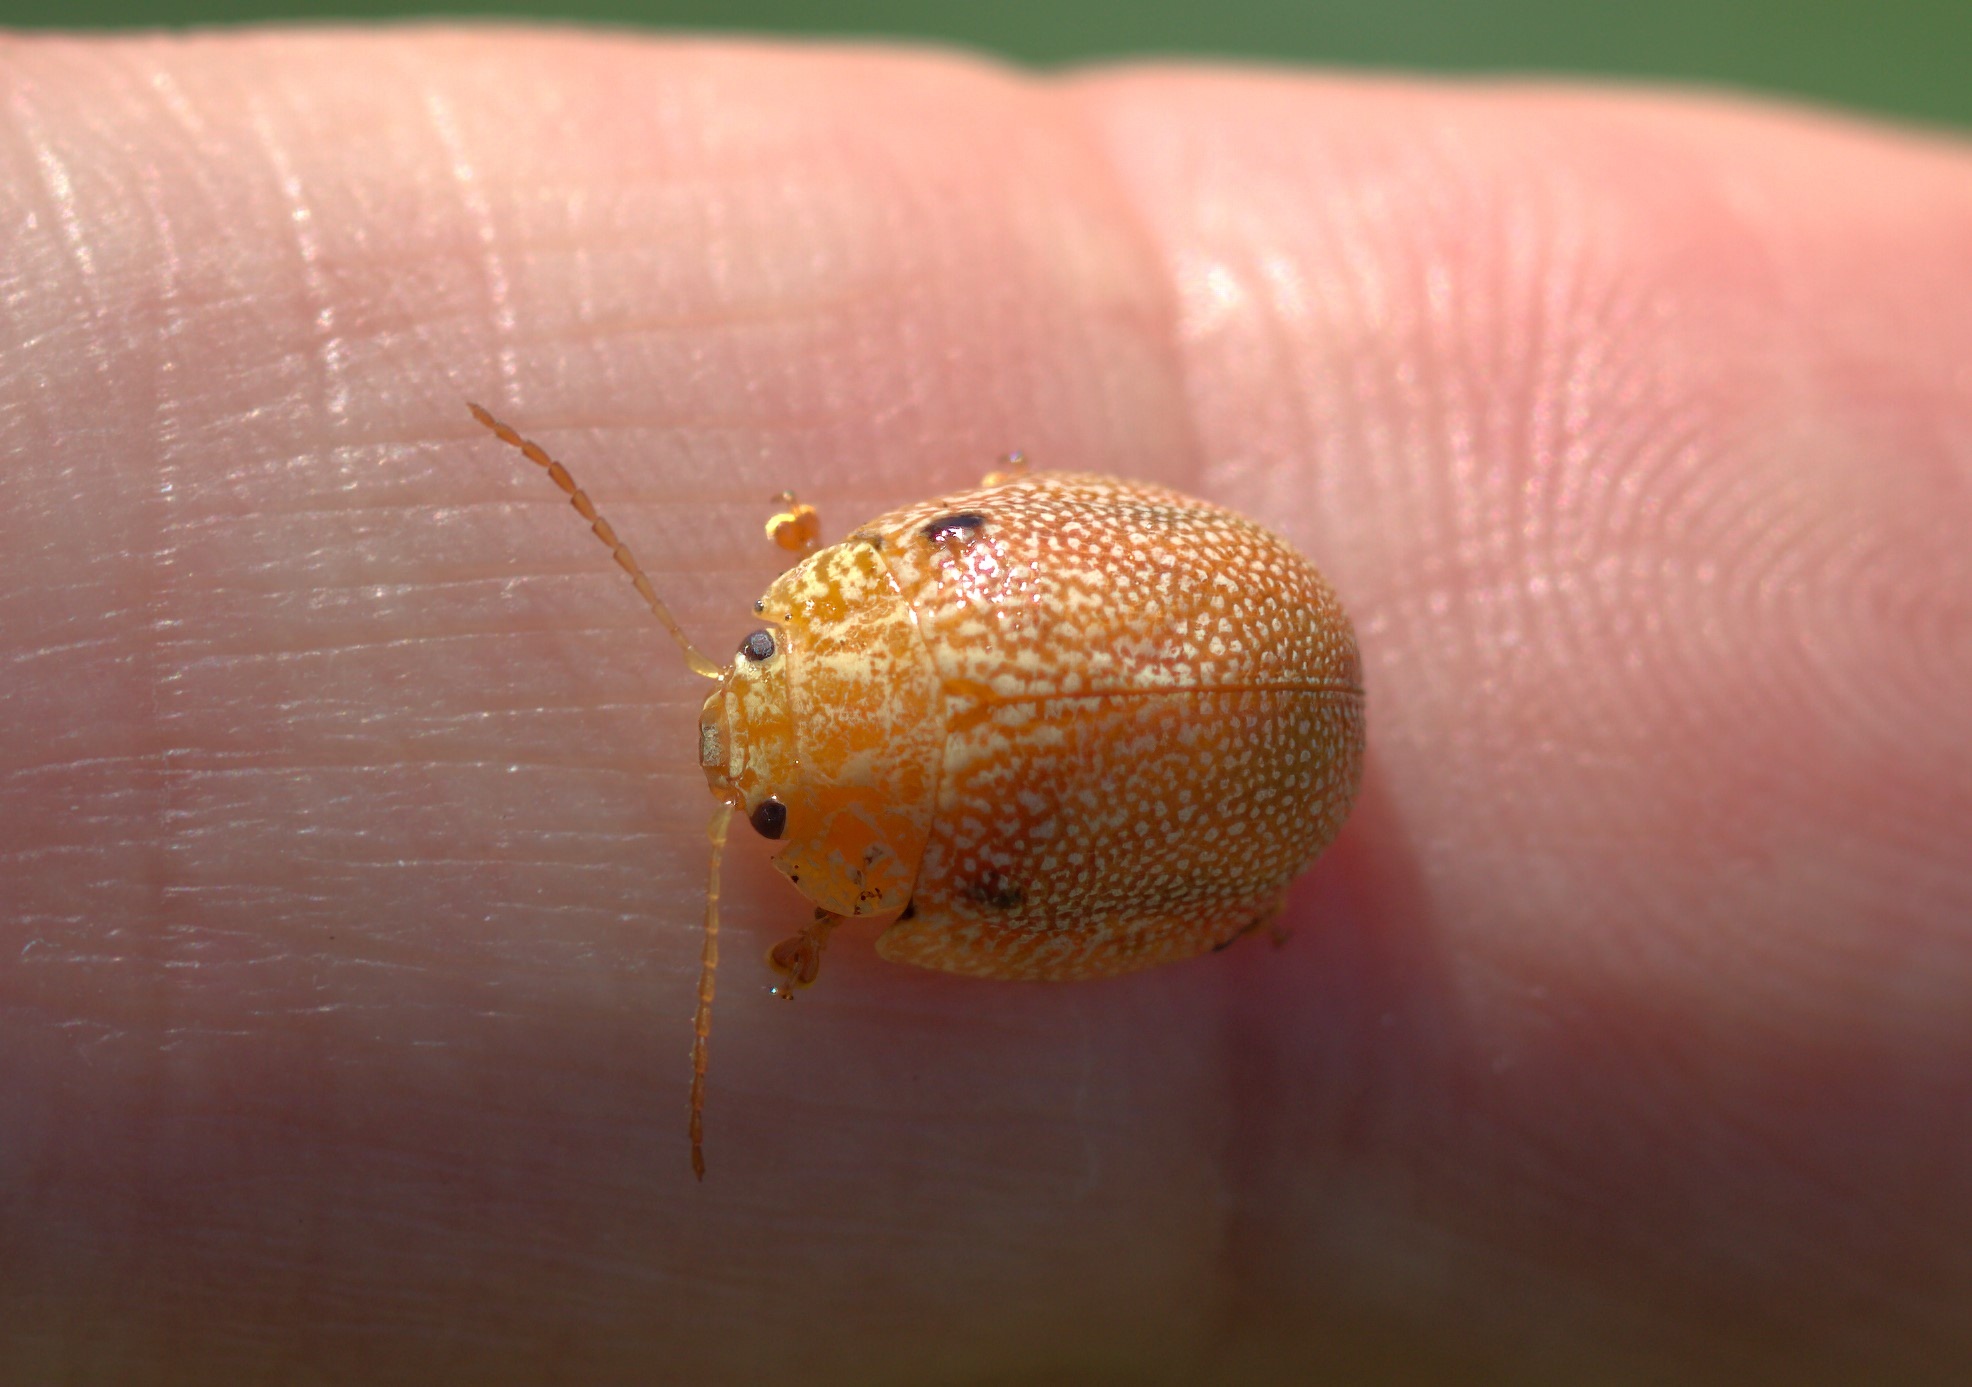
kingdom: Animalia
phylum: Arthropoda
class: Insecta
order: Coleoptera
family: Chrysomelidae
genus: Paropsis
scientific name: Paropsis
